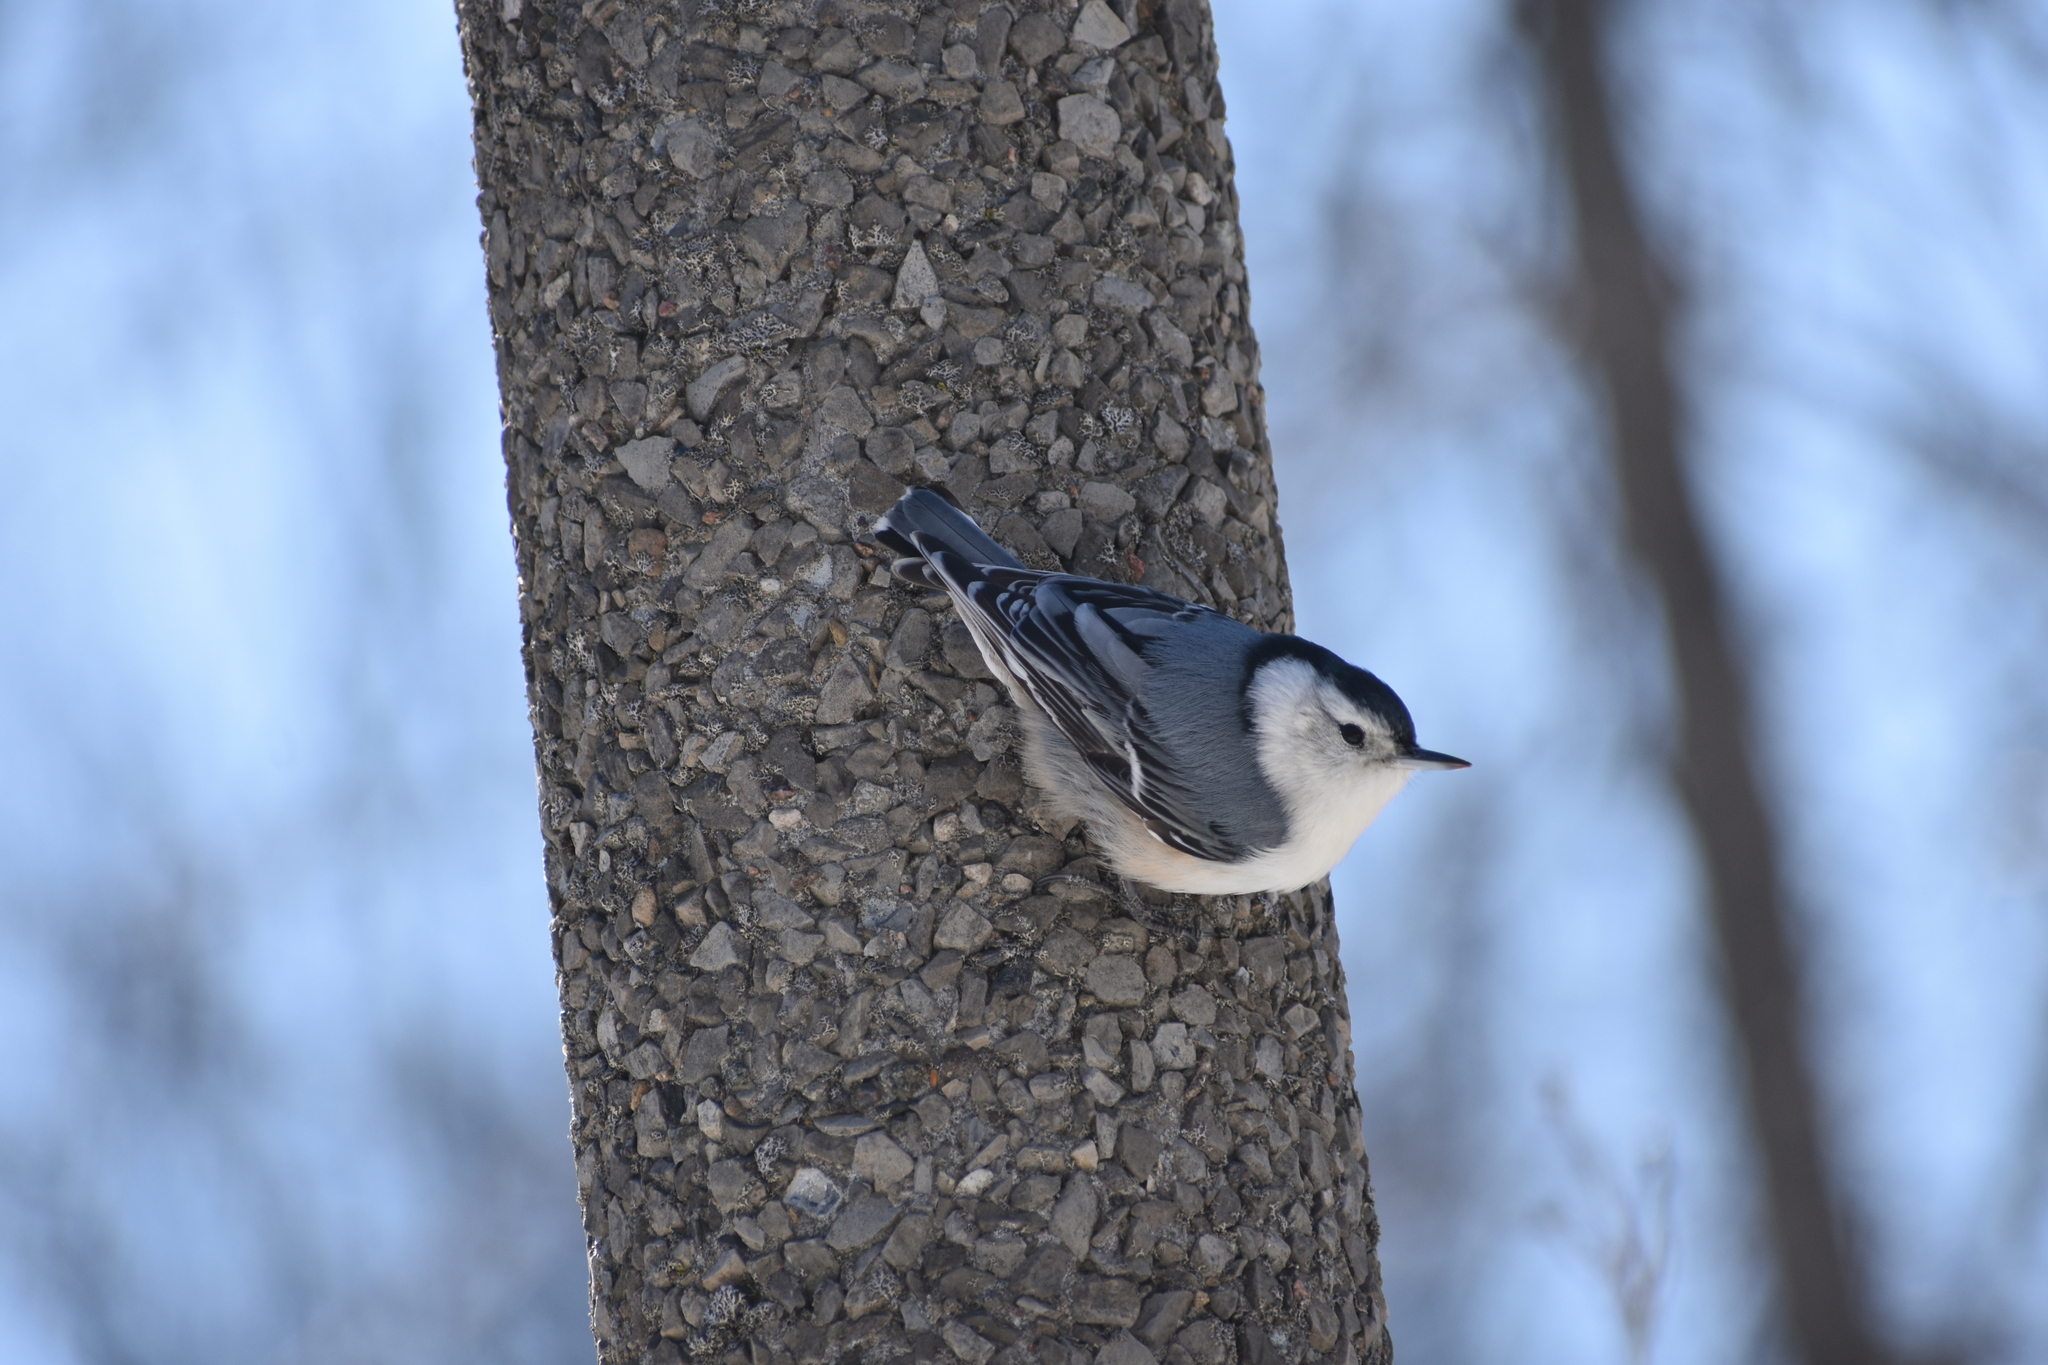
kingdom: Animalia
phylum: Chordata
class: Aves
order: Passeriformes
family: Sittidae
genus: Sitta
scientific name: Sitta carolinensis
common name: White-breasted nuthatch
